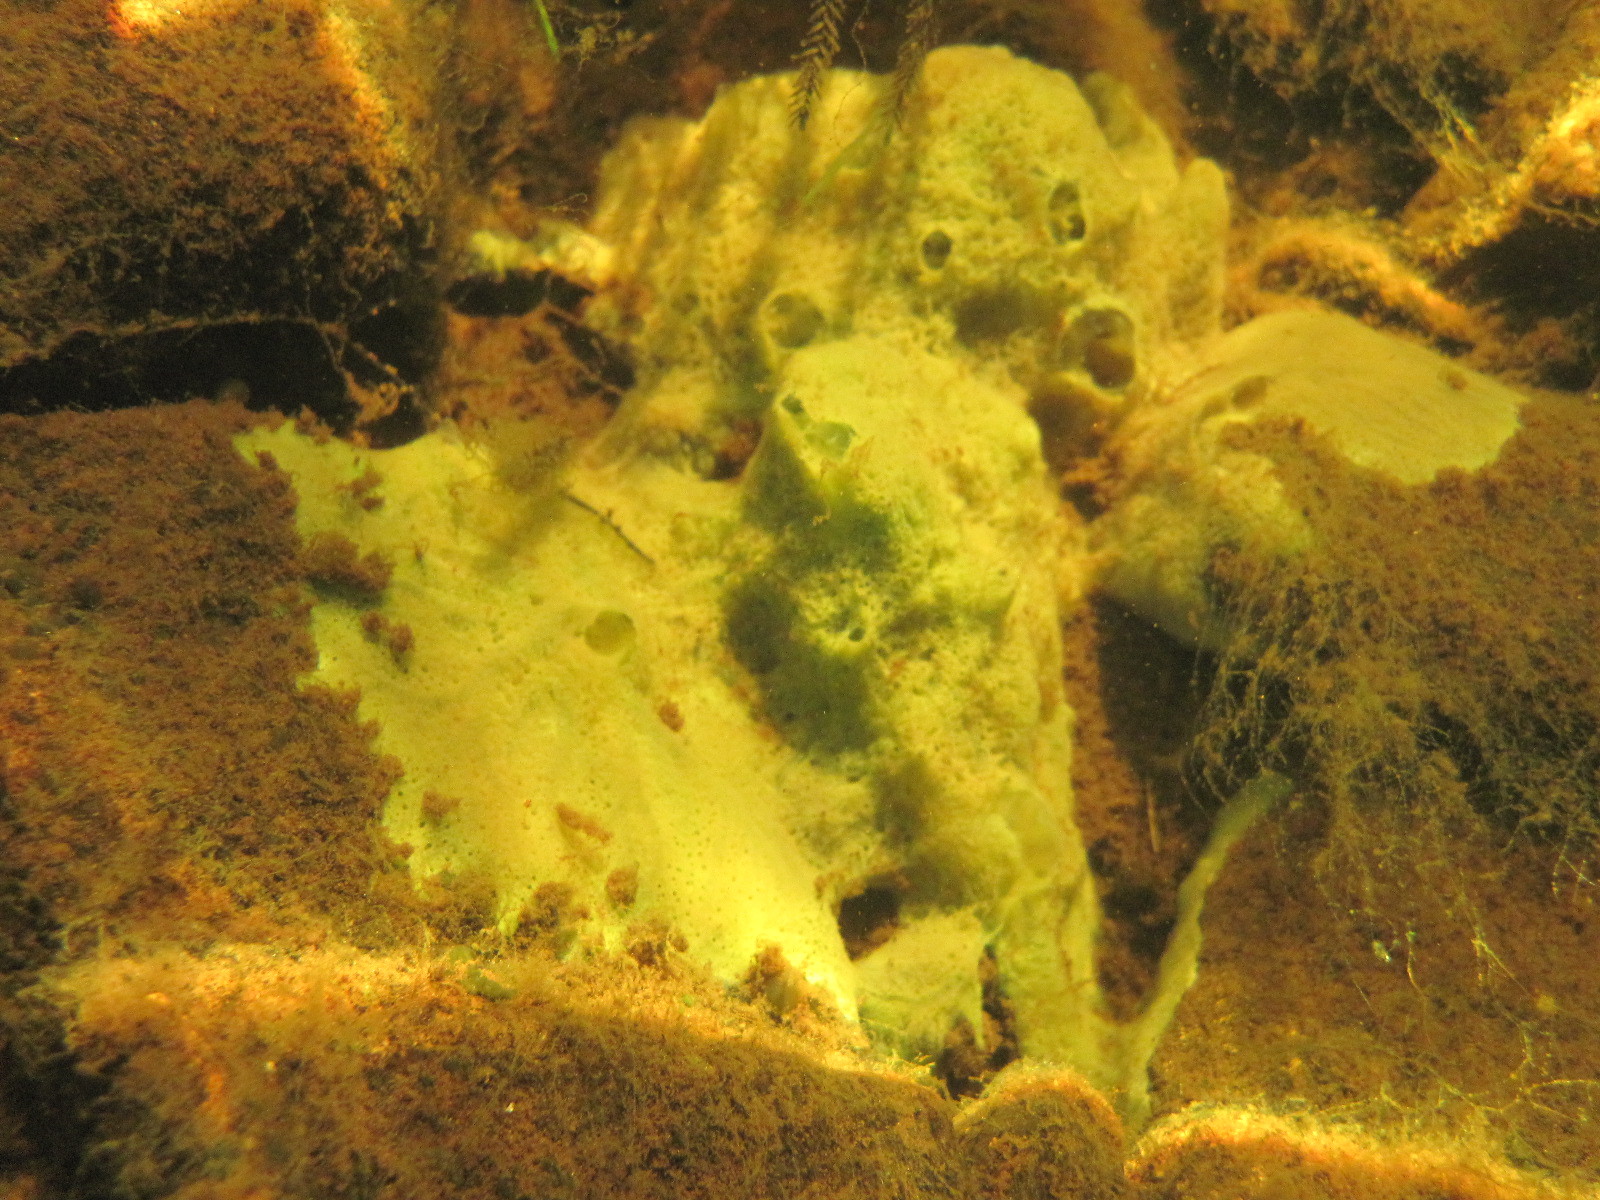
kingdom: Animalia
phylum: Porifera
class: Demospongiae
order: Spongillida
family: Spongillidae
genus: Spongilla
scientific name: Spongilla lacustris
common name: Common freshwater sponge
